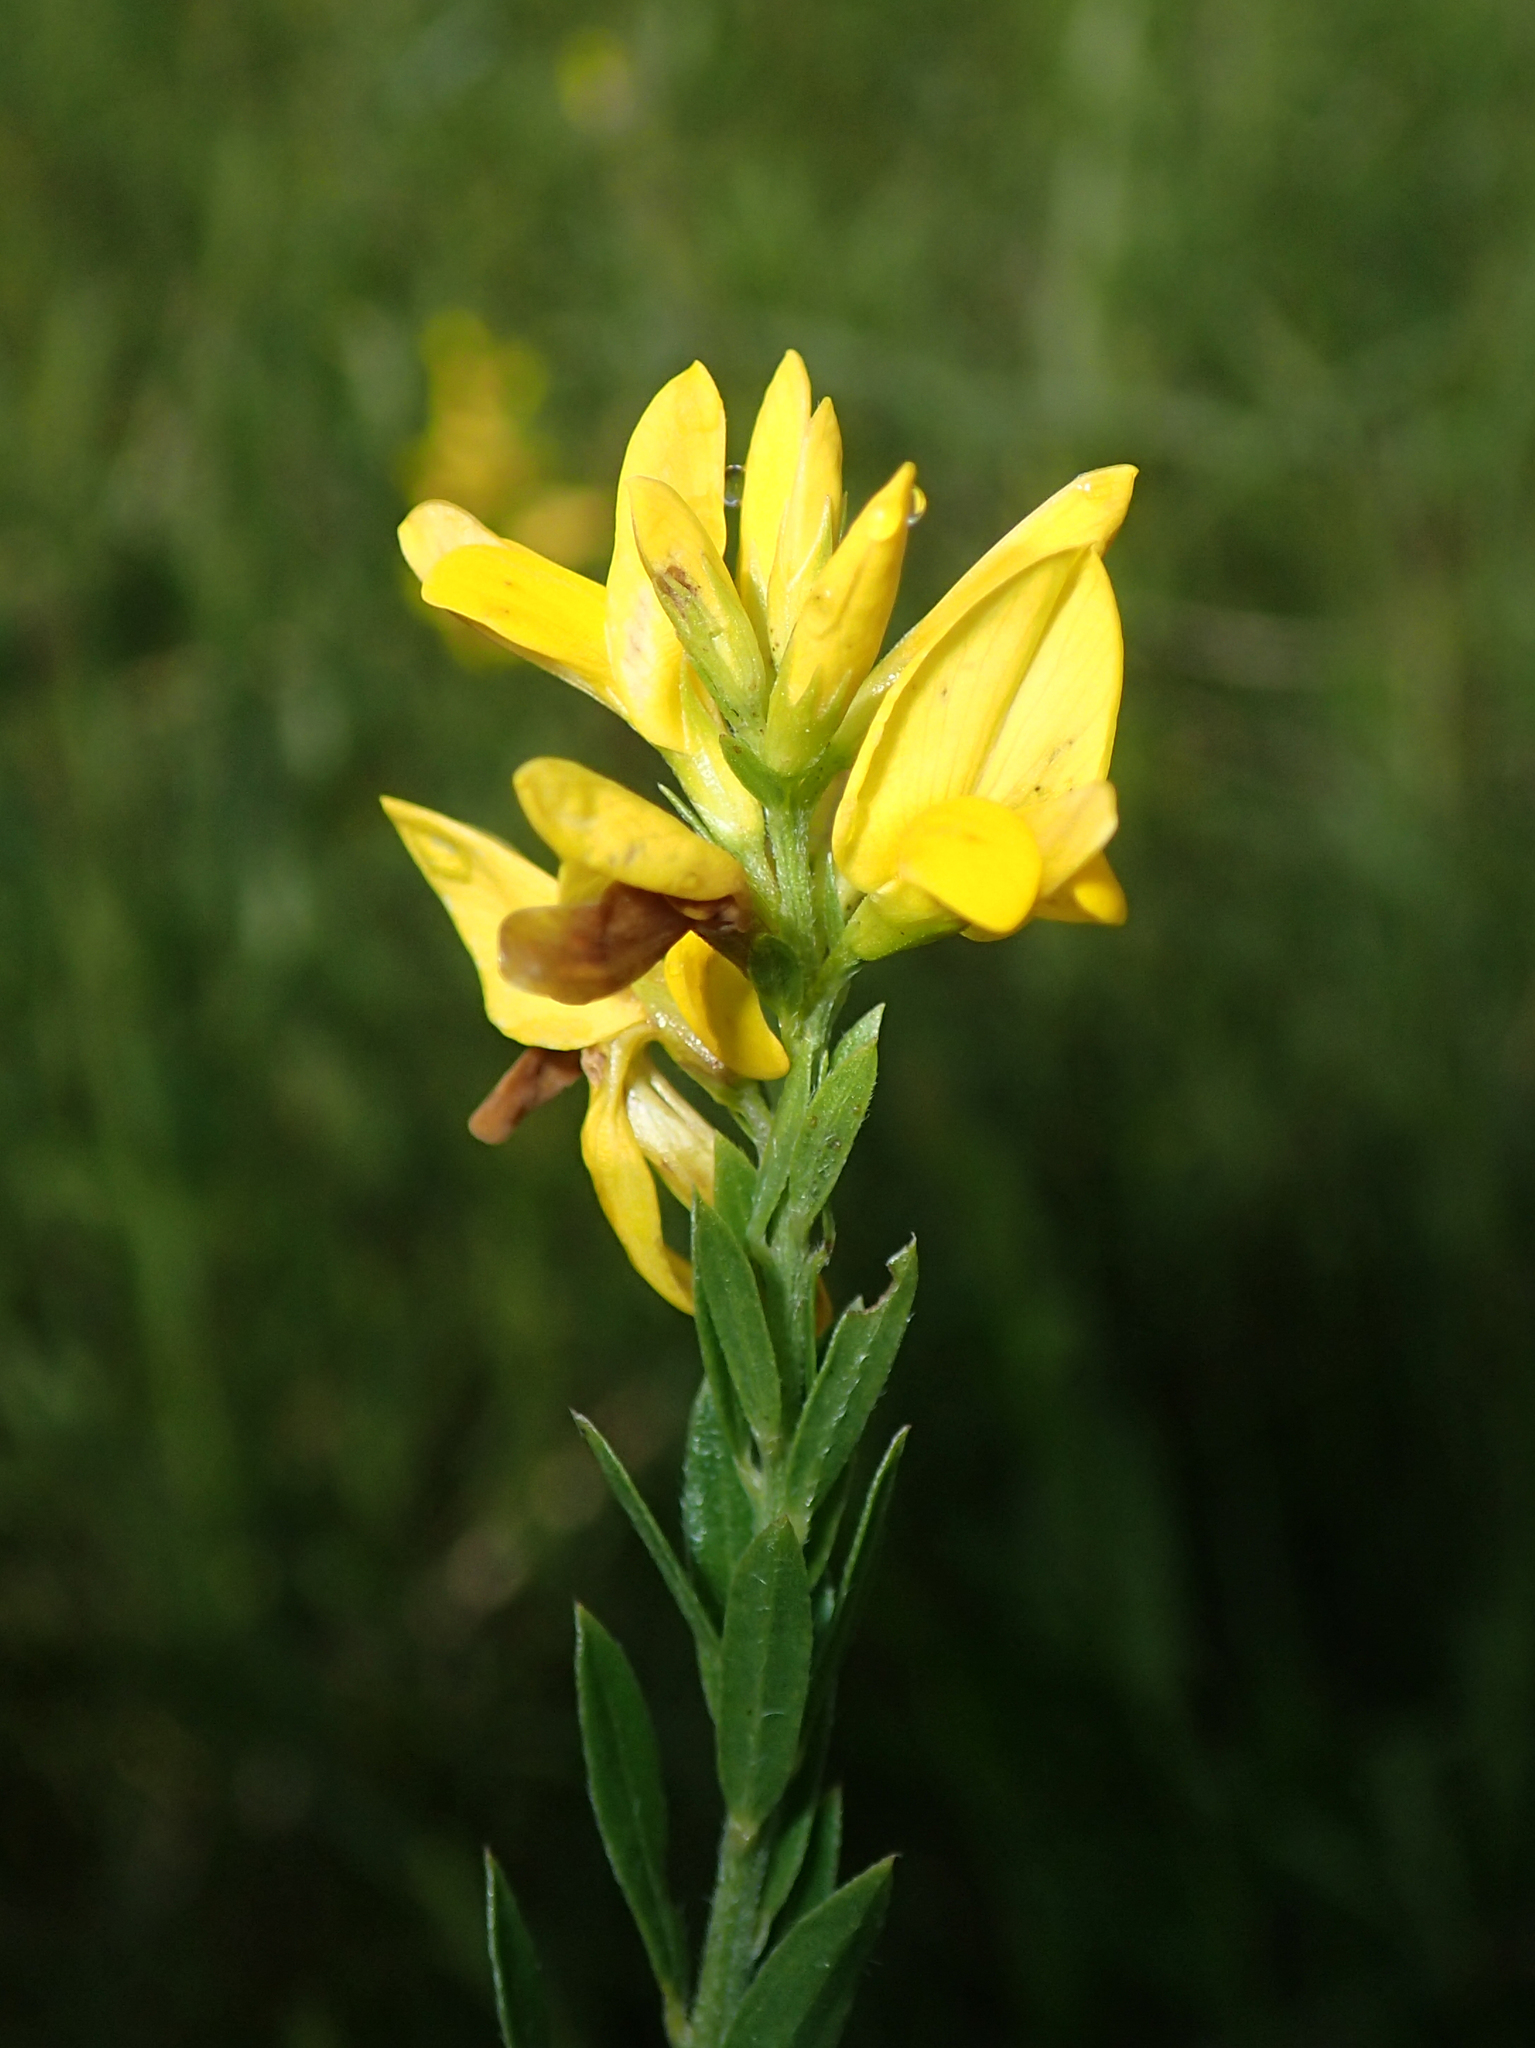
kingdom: Plantae
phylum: Tracheophyta
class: Magnoliopsida
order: Fabales
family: Fabaceae
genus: Genista
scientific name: Genista tinctoria
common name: Dyer's greenweed
